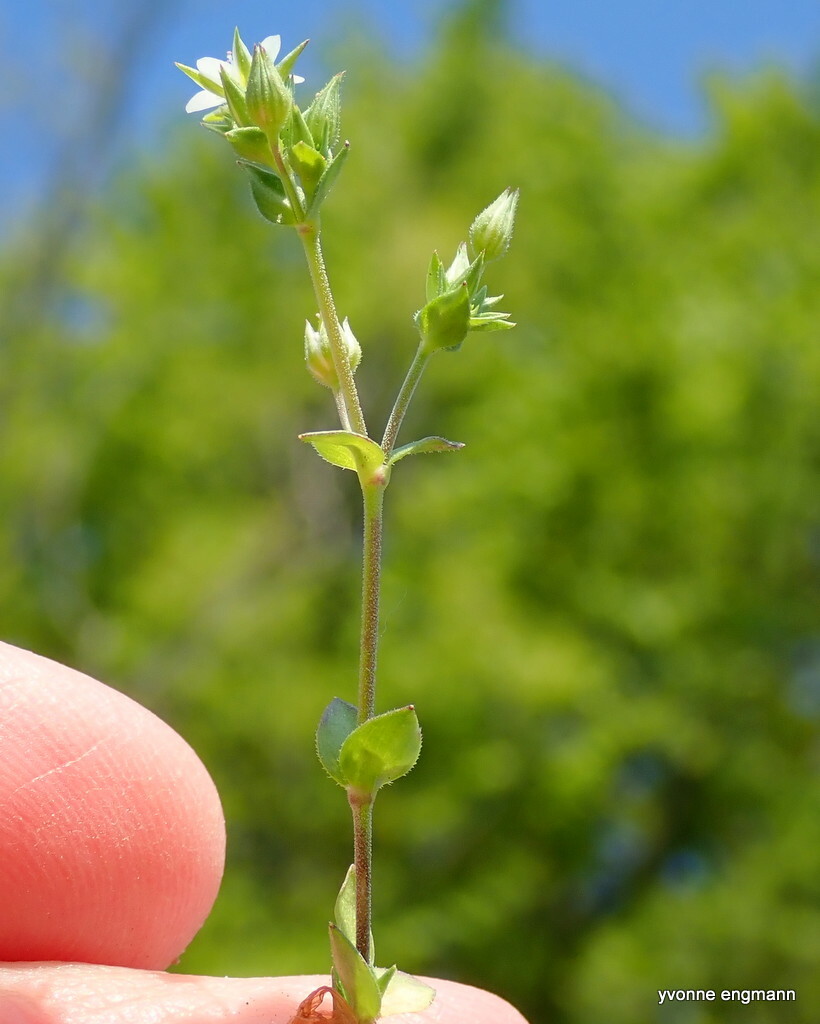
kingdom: Plantae
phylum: Tracheophyta
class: Magnoliopsida
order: Caryophyllales
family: Caryophyllaceae
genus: Arenaria
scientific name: Arenaria serpyllifolia
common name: Thyme-leaved sandwort
